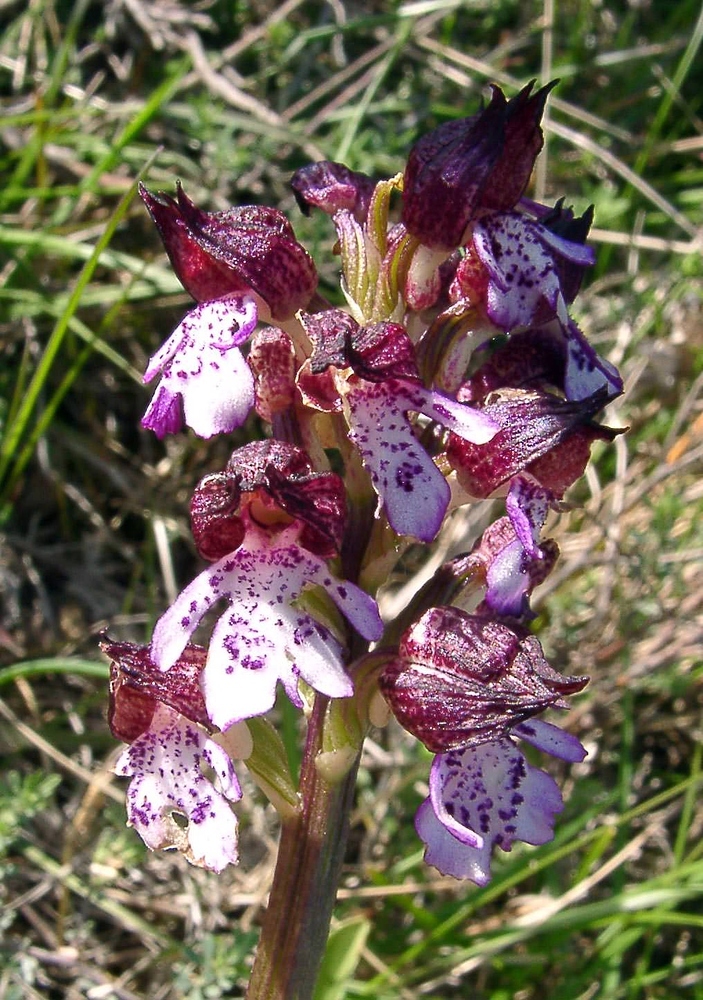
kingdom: Plantae
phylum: Tracheophyta
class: Liliopsida
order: Asparagales
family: Orchidaceae
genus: Orchis
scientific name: Orchis purpurea
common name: Lady orchid
